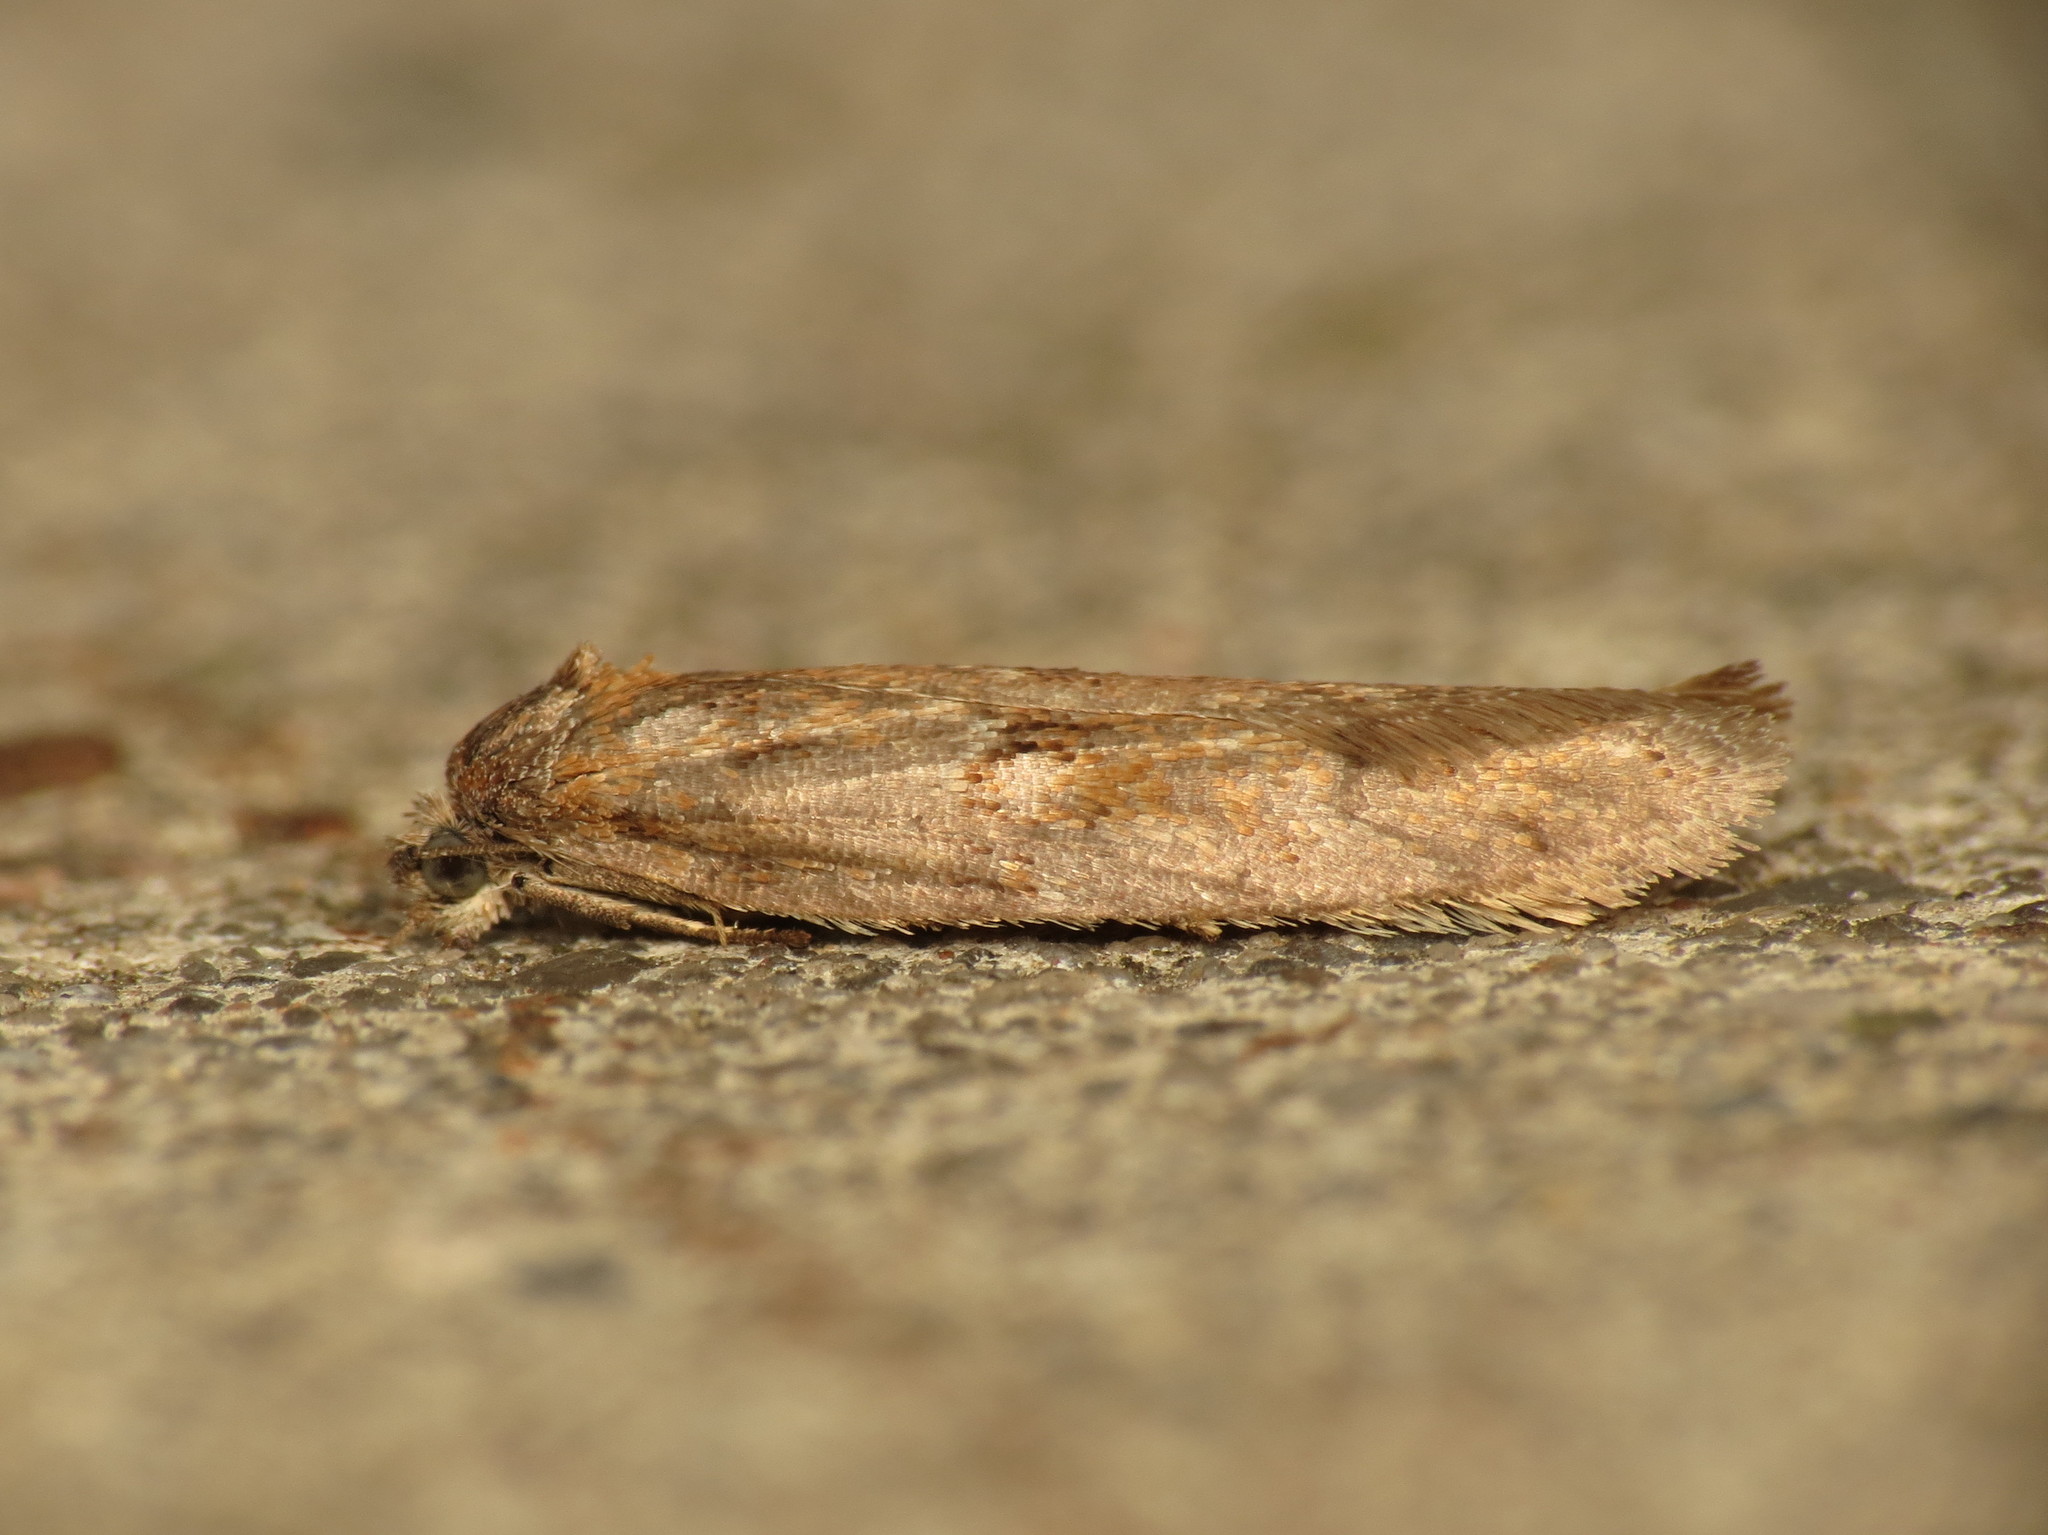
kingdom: Animalia
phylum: Arthropoda
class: Insecta
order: Lepidoptera
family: Tortricidae
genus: Tortricodes
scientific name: Tortricodes alternella
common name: Winter shade
